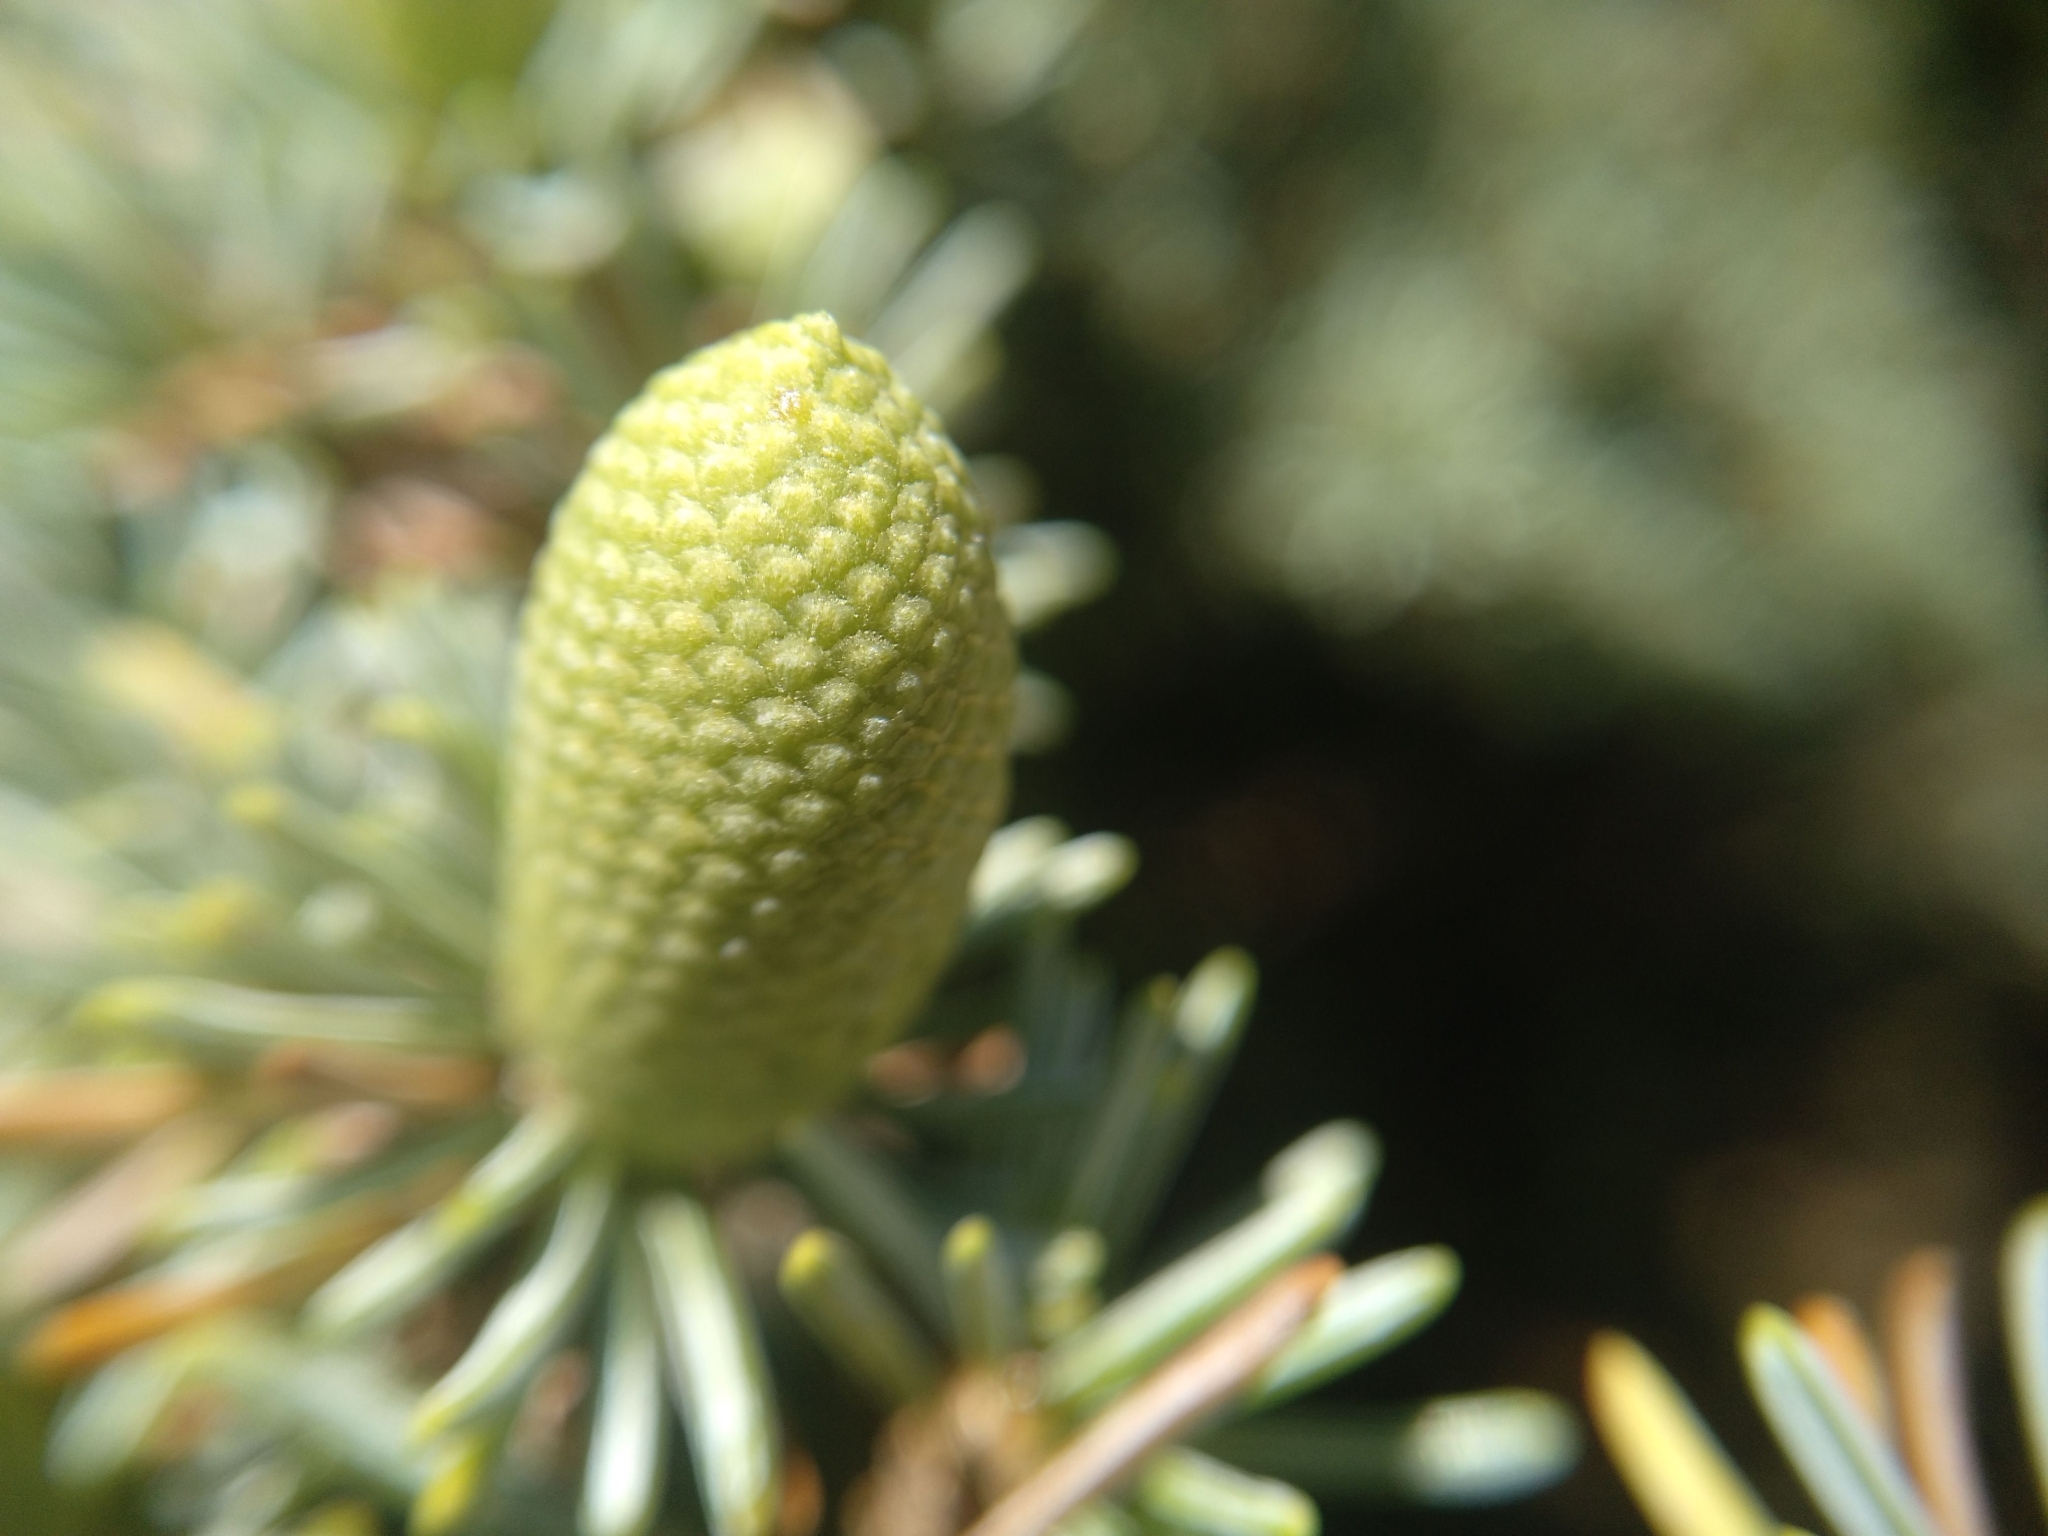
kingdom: Plantae
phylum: Tracheophyta
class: Pinopsida
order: Pinales
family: Pinaceae
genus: Cedrus
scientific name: Cedrus brevifolia
